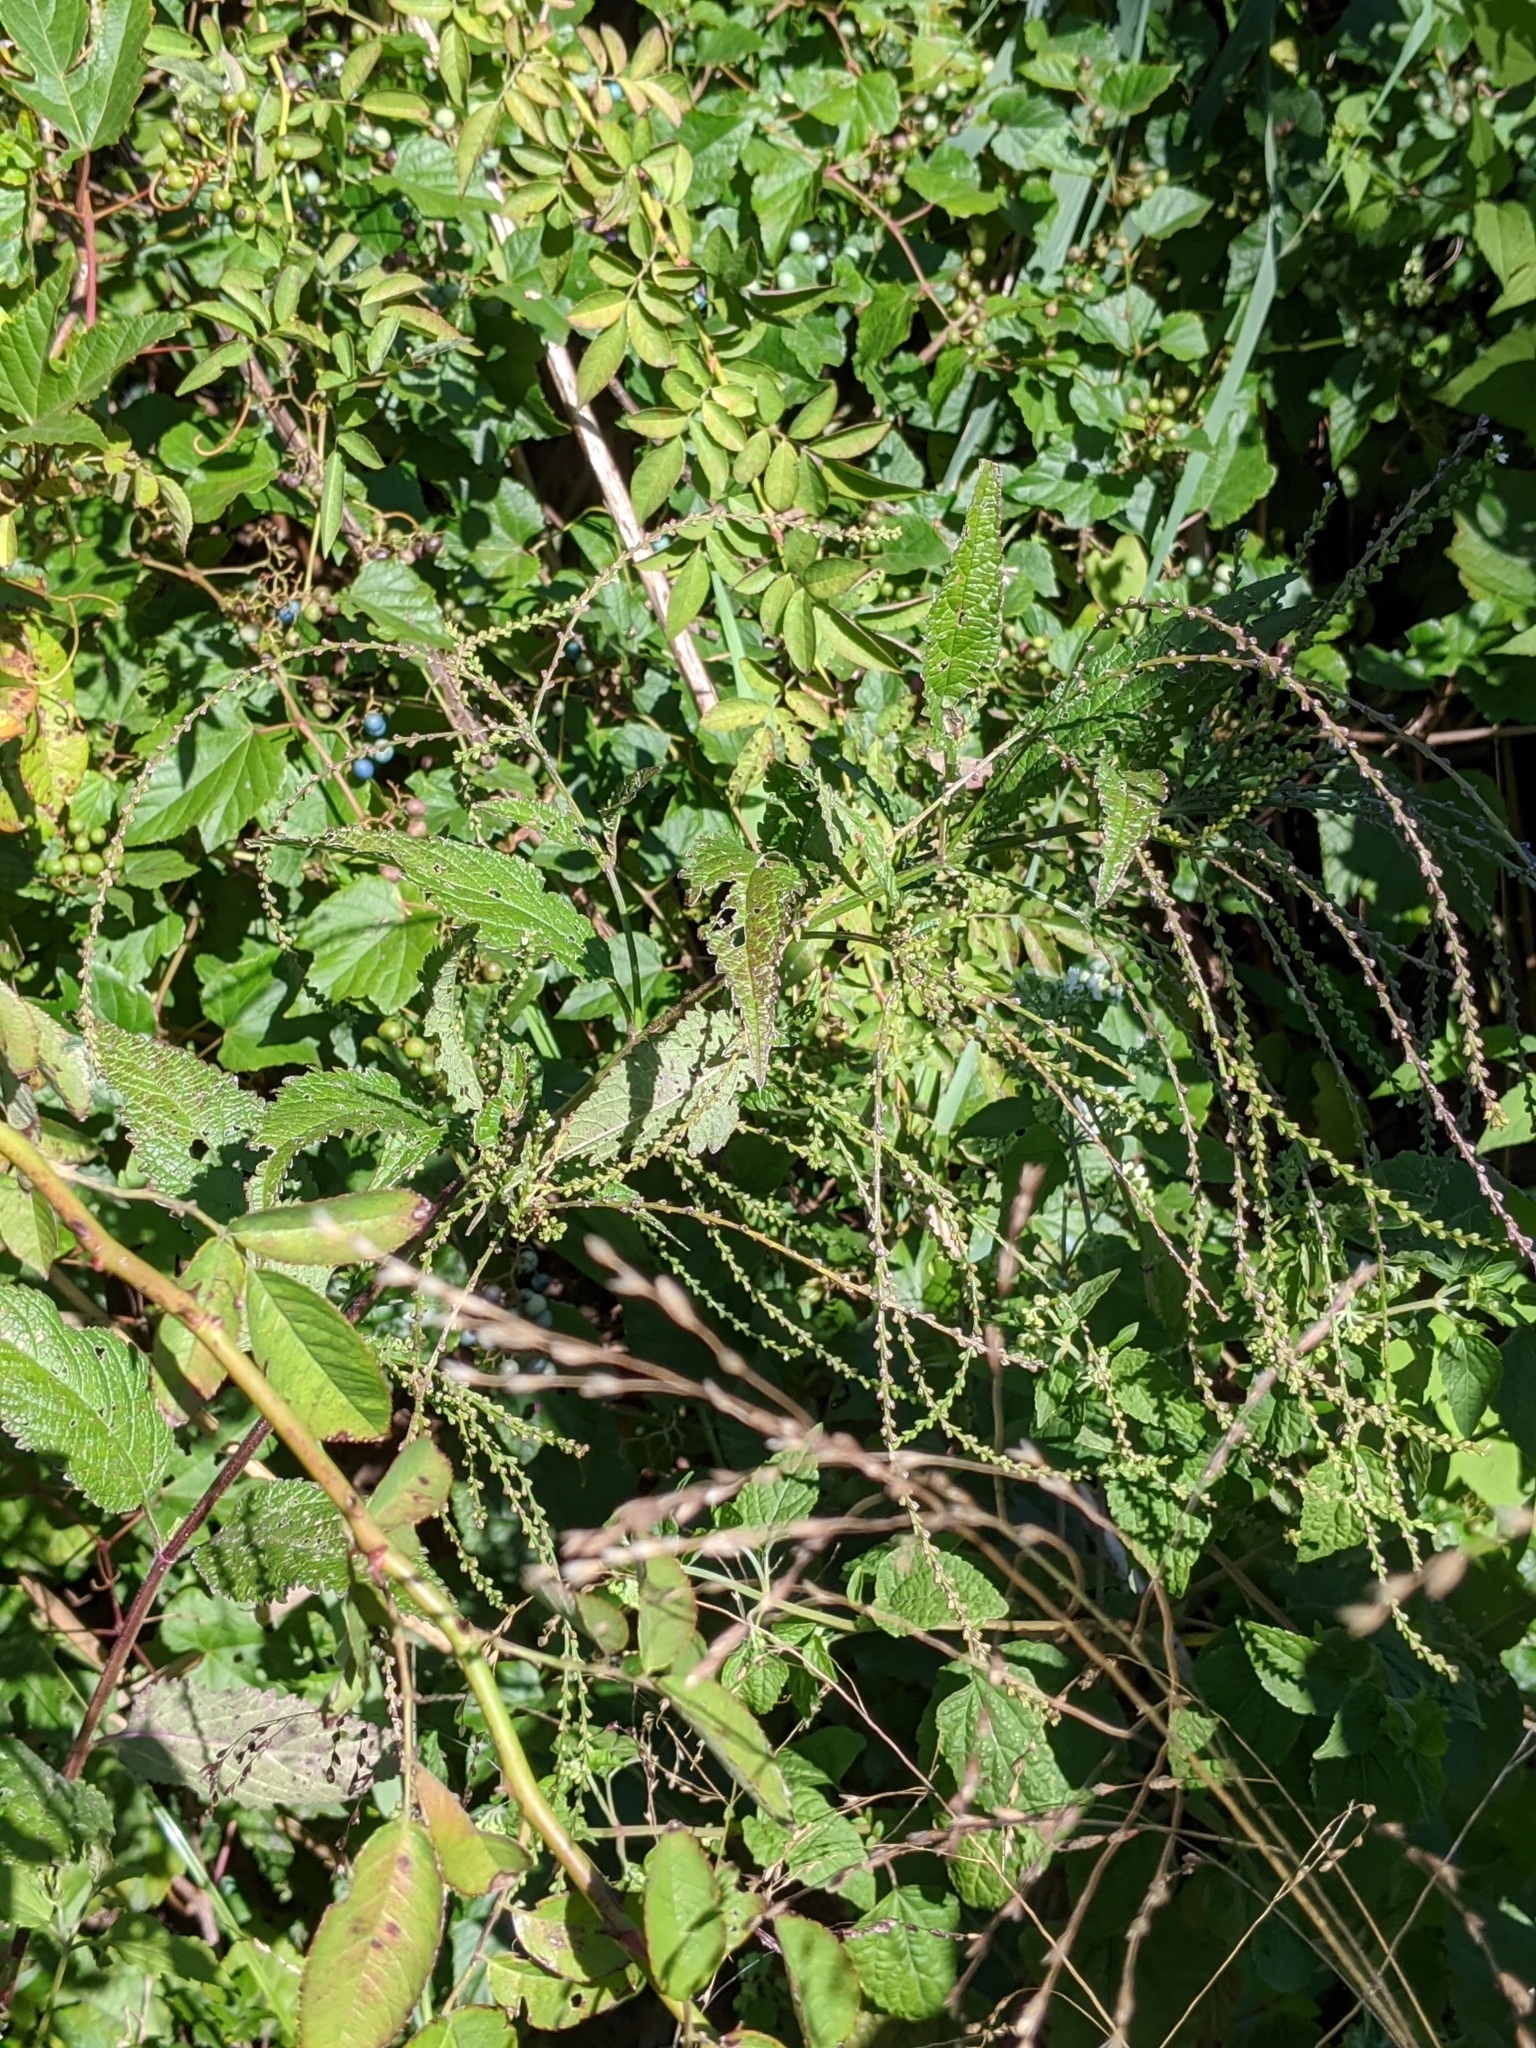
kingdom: Plantae
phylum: Tracheophyta
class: Magnoliopsida
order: Lamiales
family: Verbenaceae
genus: Verbena
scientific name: Verbena urticifolia
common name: Nettle-leaved vervain
